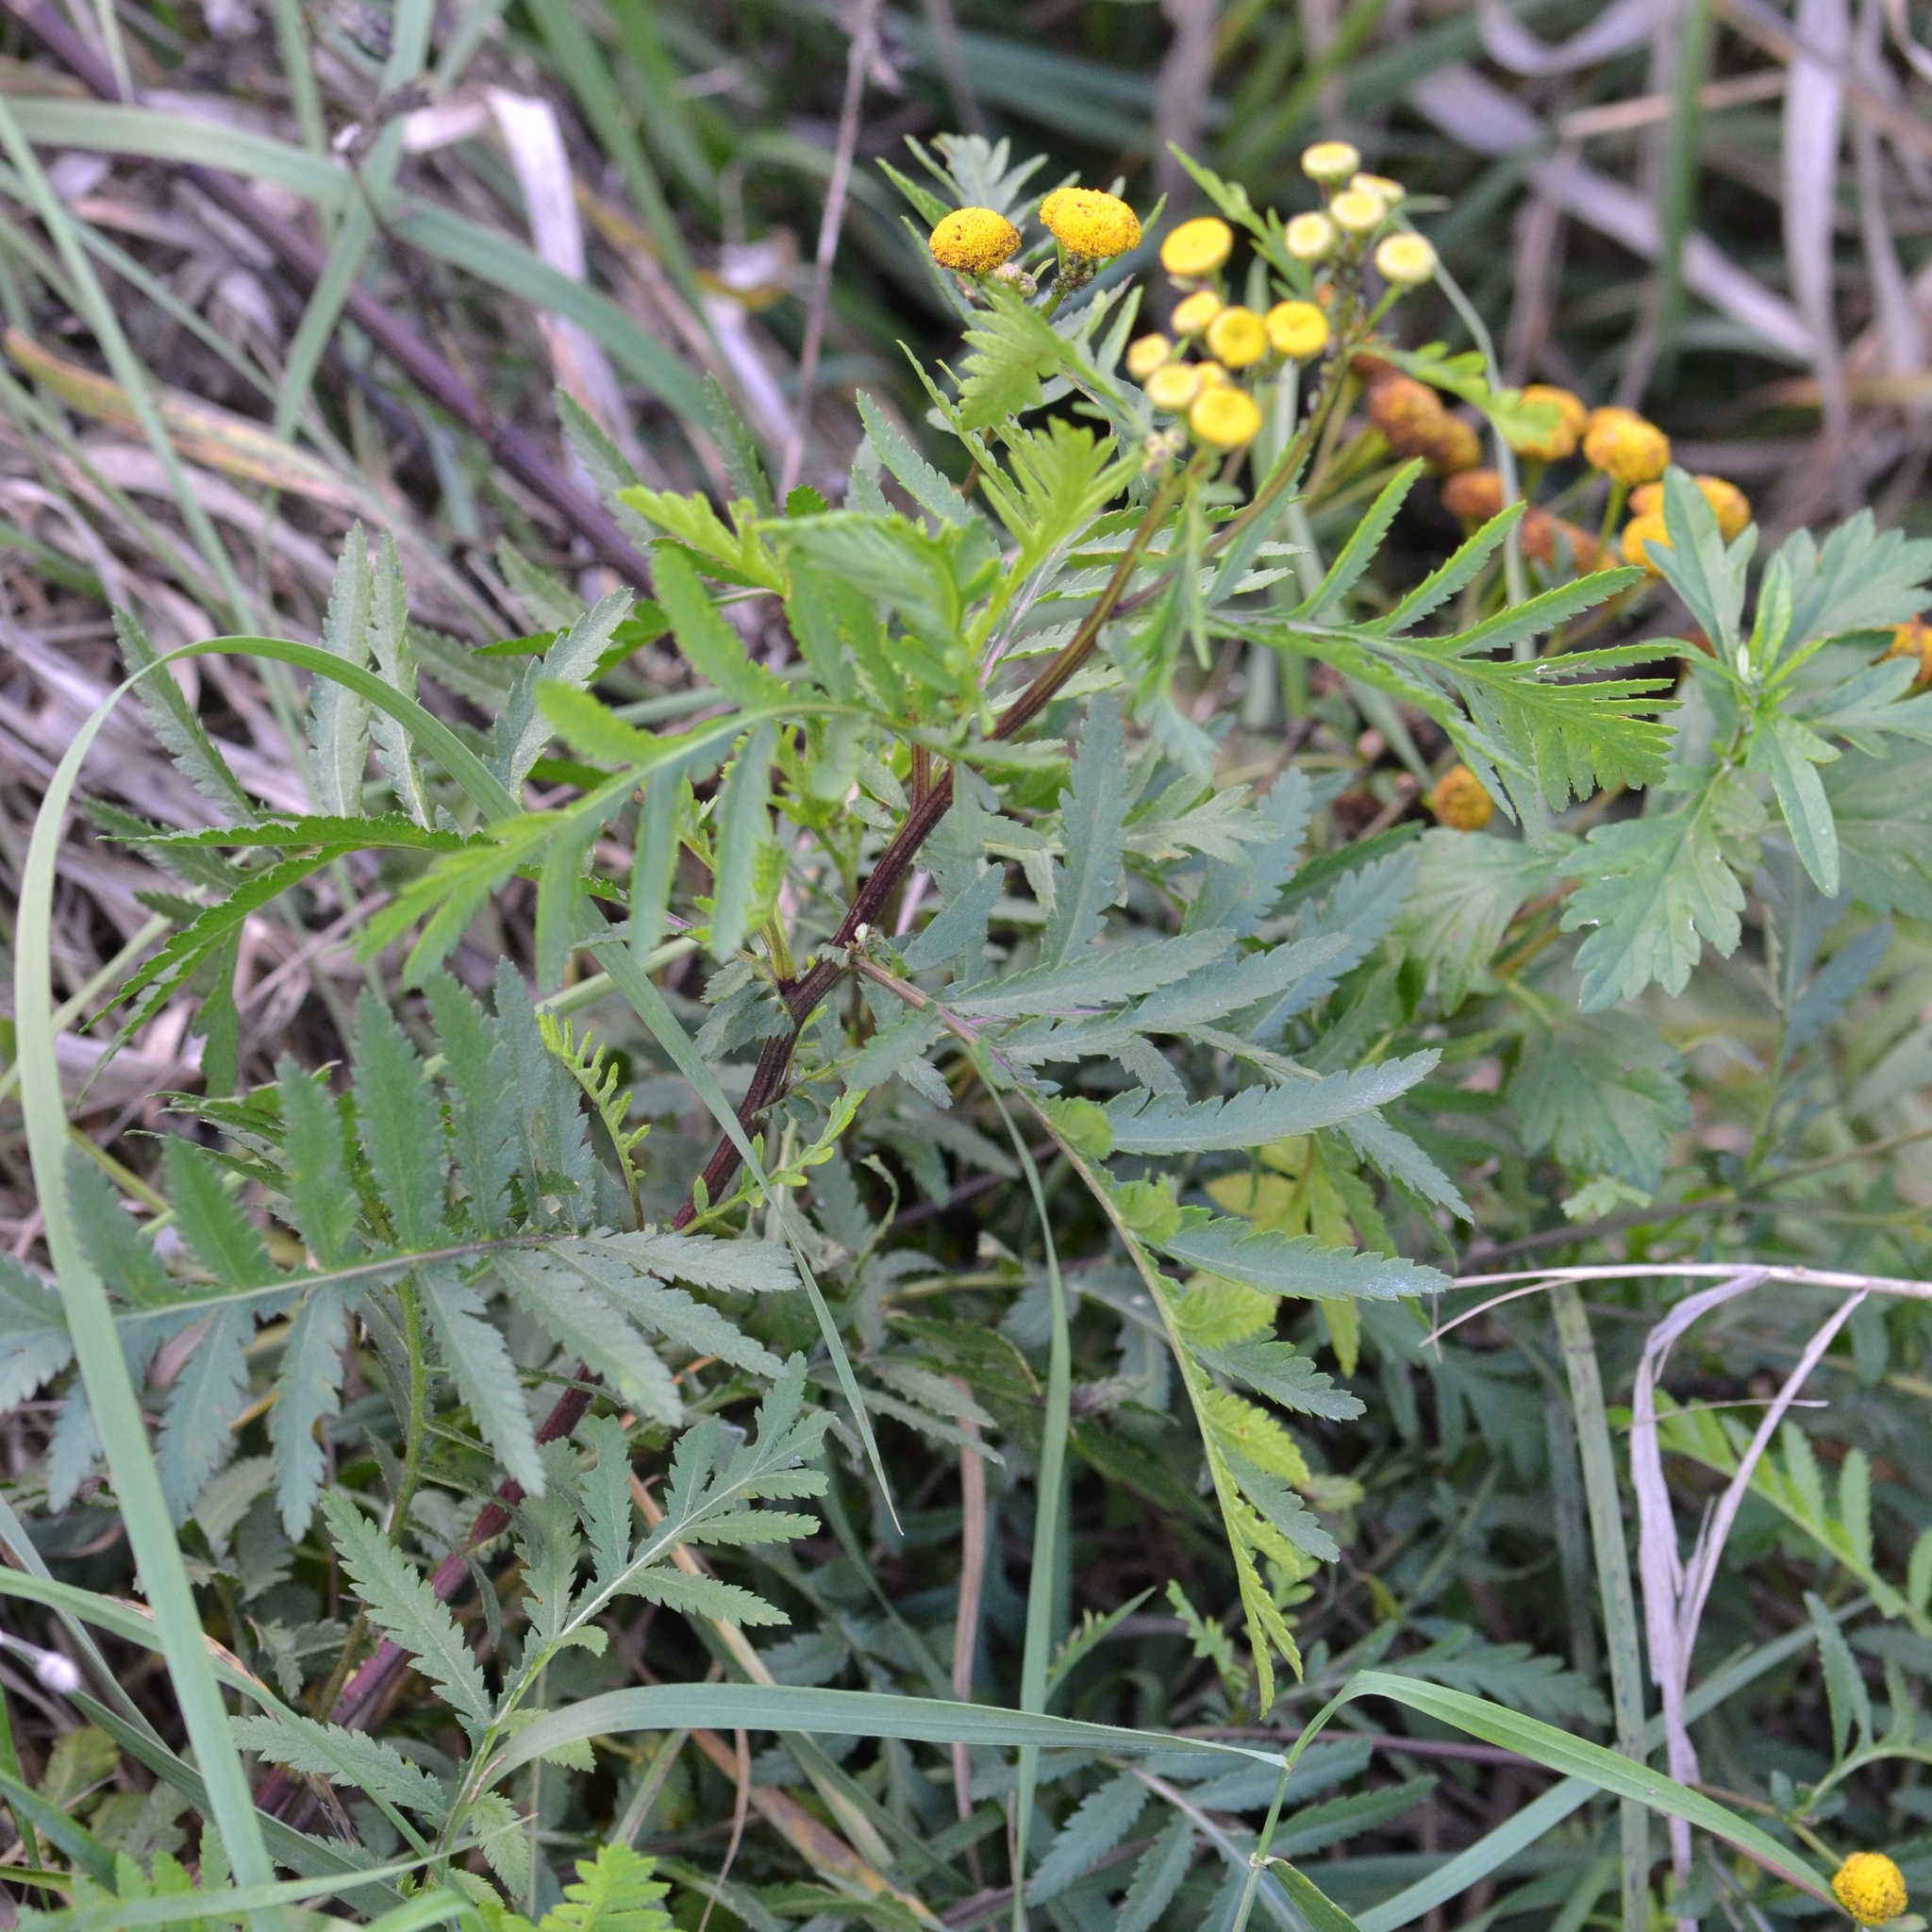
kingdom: Plantae
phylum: Tracheophyta
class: Magnoliopsida
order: Asterales
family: Asteraceae
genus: Tanacetum
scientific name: Tanacetum vulgare
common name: Common tansy
